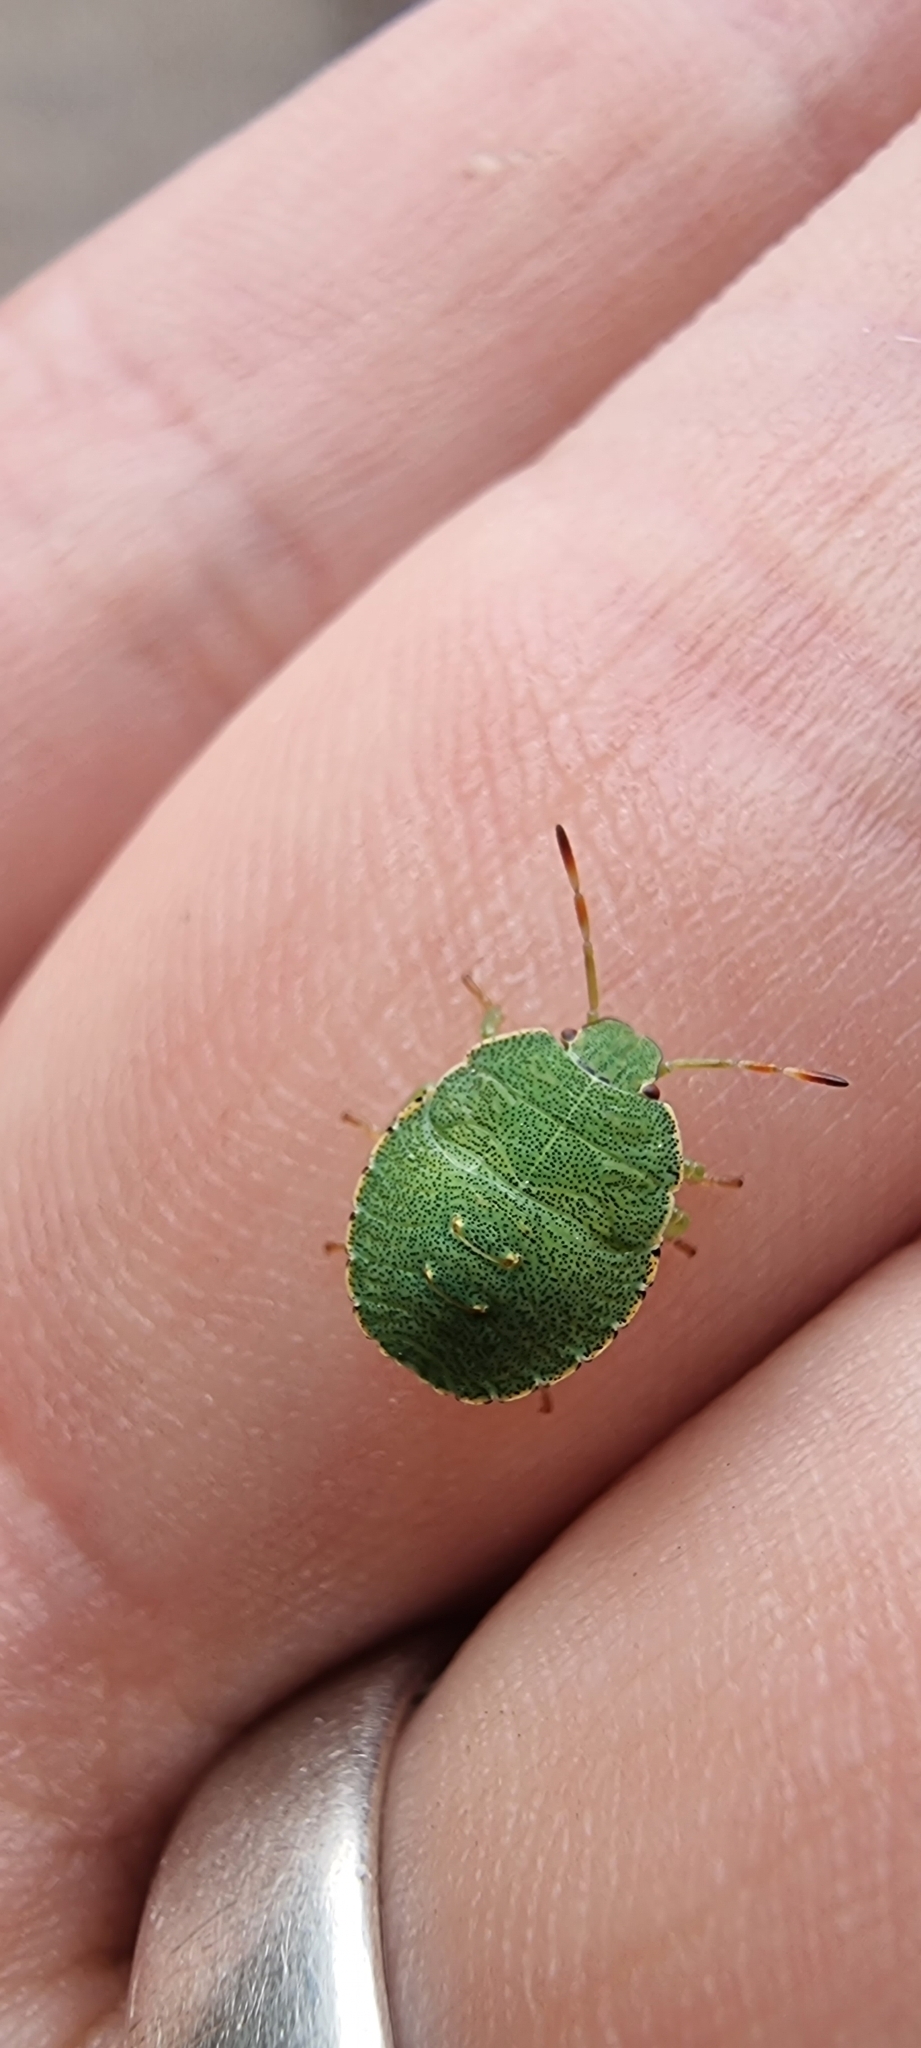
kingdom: Animalia
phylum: Arthropoda
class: Insecta
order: Hemiptera
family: Pentatomidae
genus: Palomena
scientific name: Palomena prasina
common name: Green shieldbug
